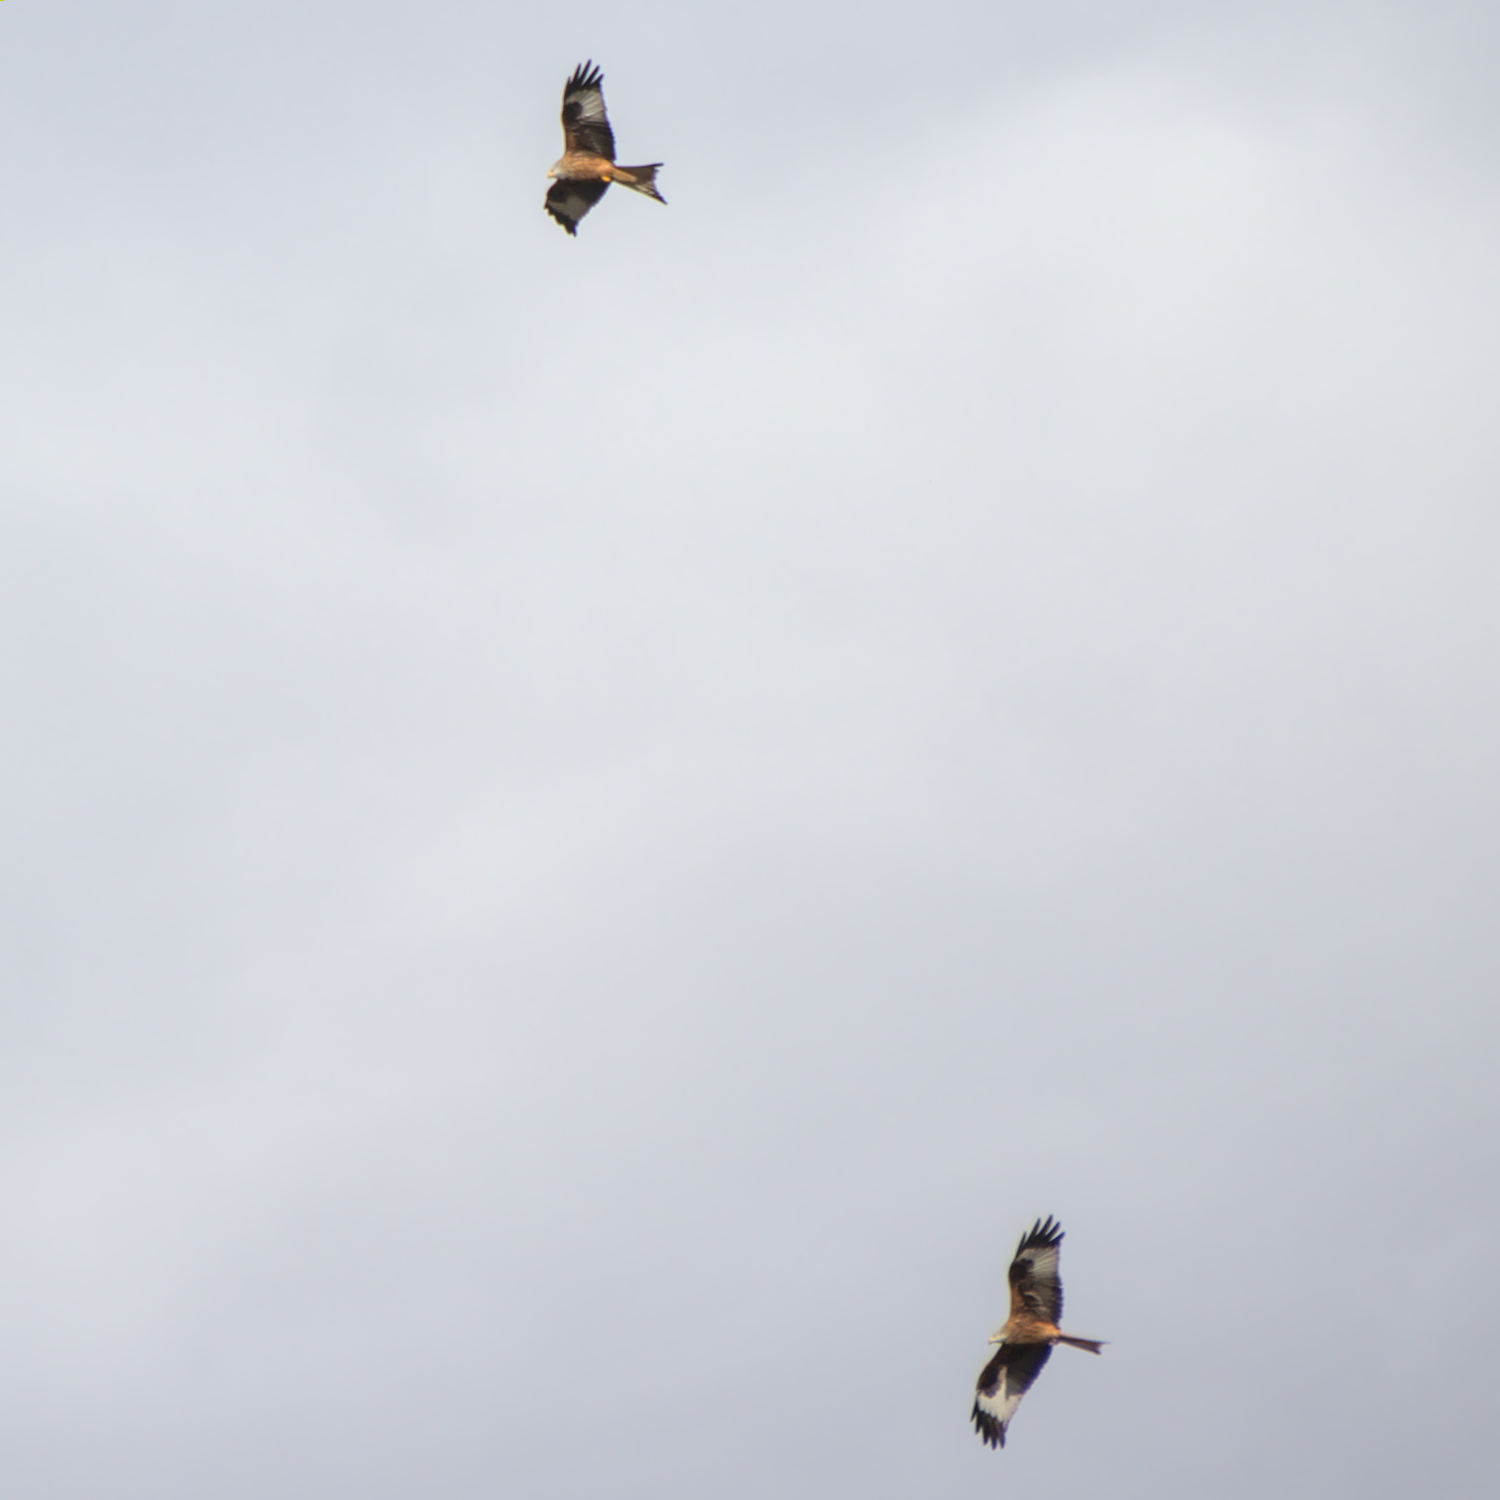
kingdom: Animalia
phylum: Chordata
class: Aves
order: Accipitriformes
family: Accipitridae
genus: Milvus
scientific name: Milvus milvus
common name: Red kite
